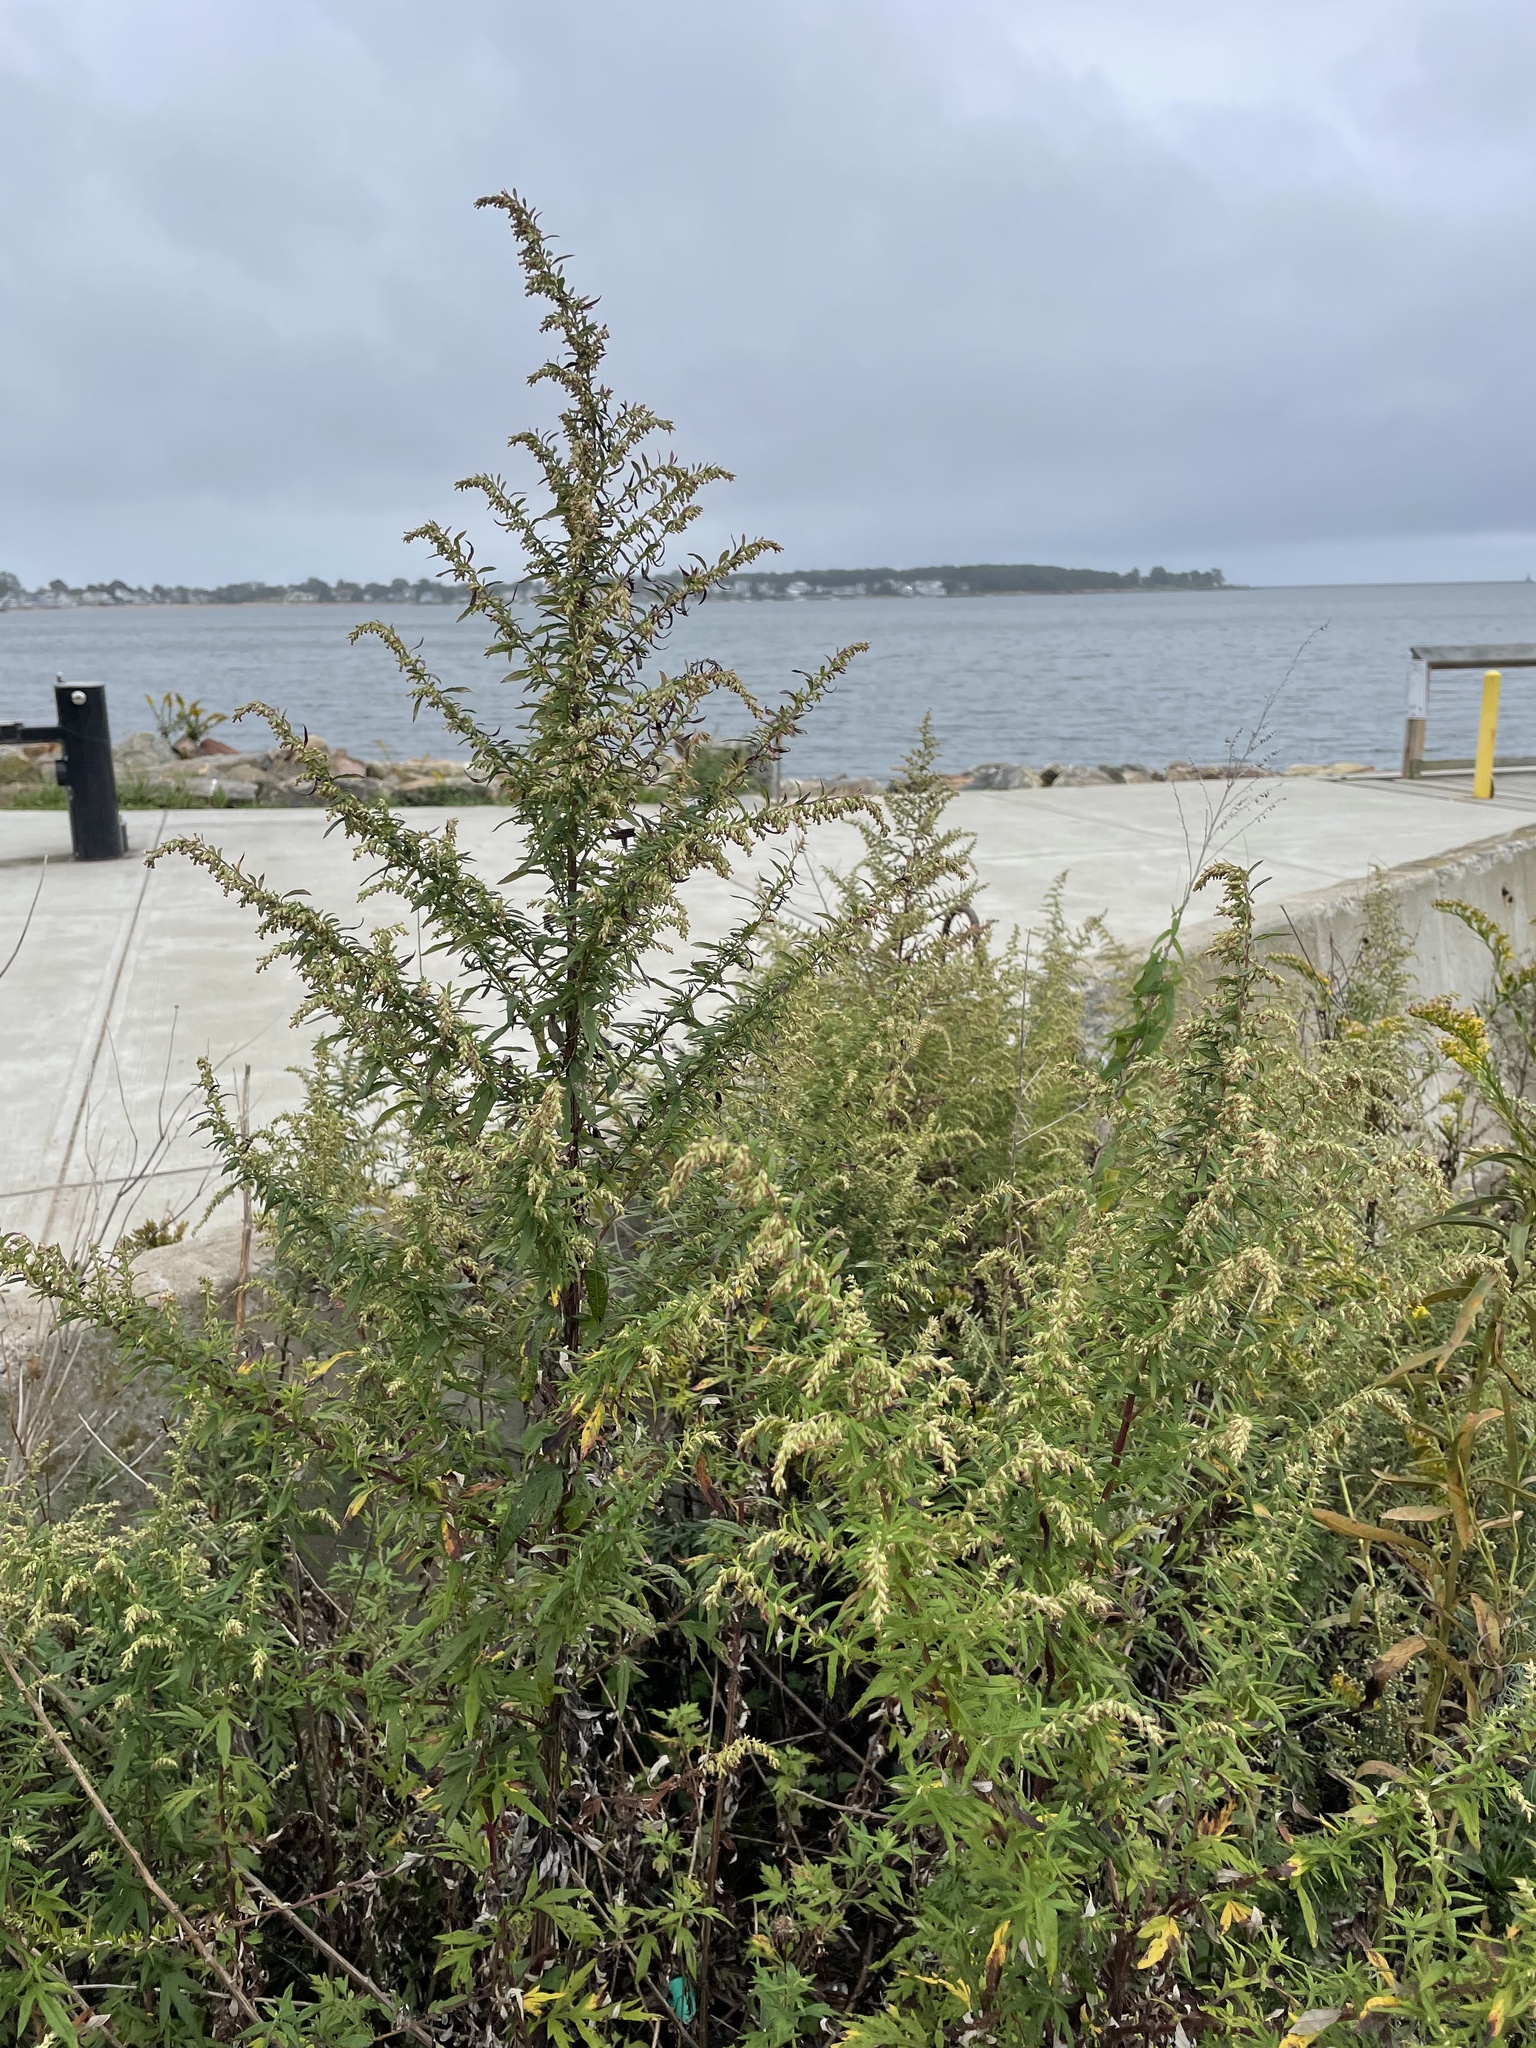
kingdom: Plantae
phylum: Tracheophyta
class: Magnoliopsida
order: Asterales
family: Asteraceae
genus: Artemisia
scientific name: Artemisia vulgaris
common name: Mugwort
